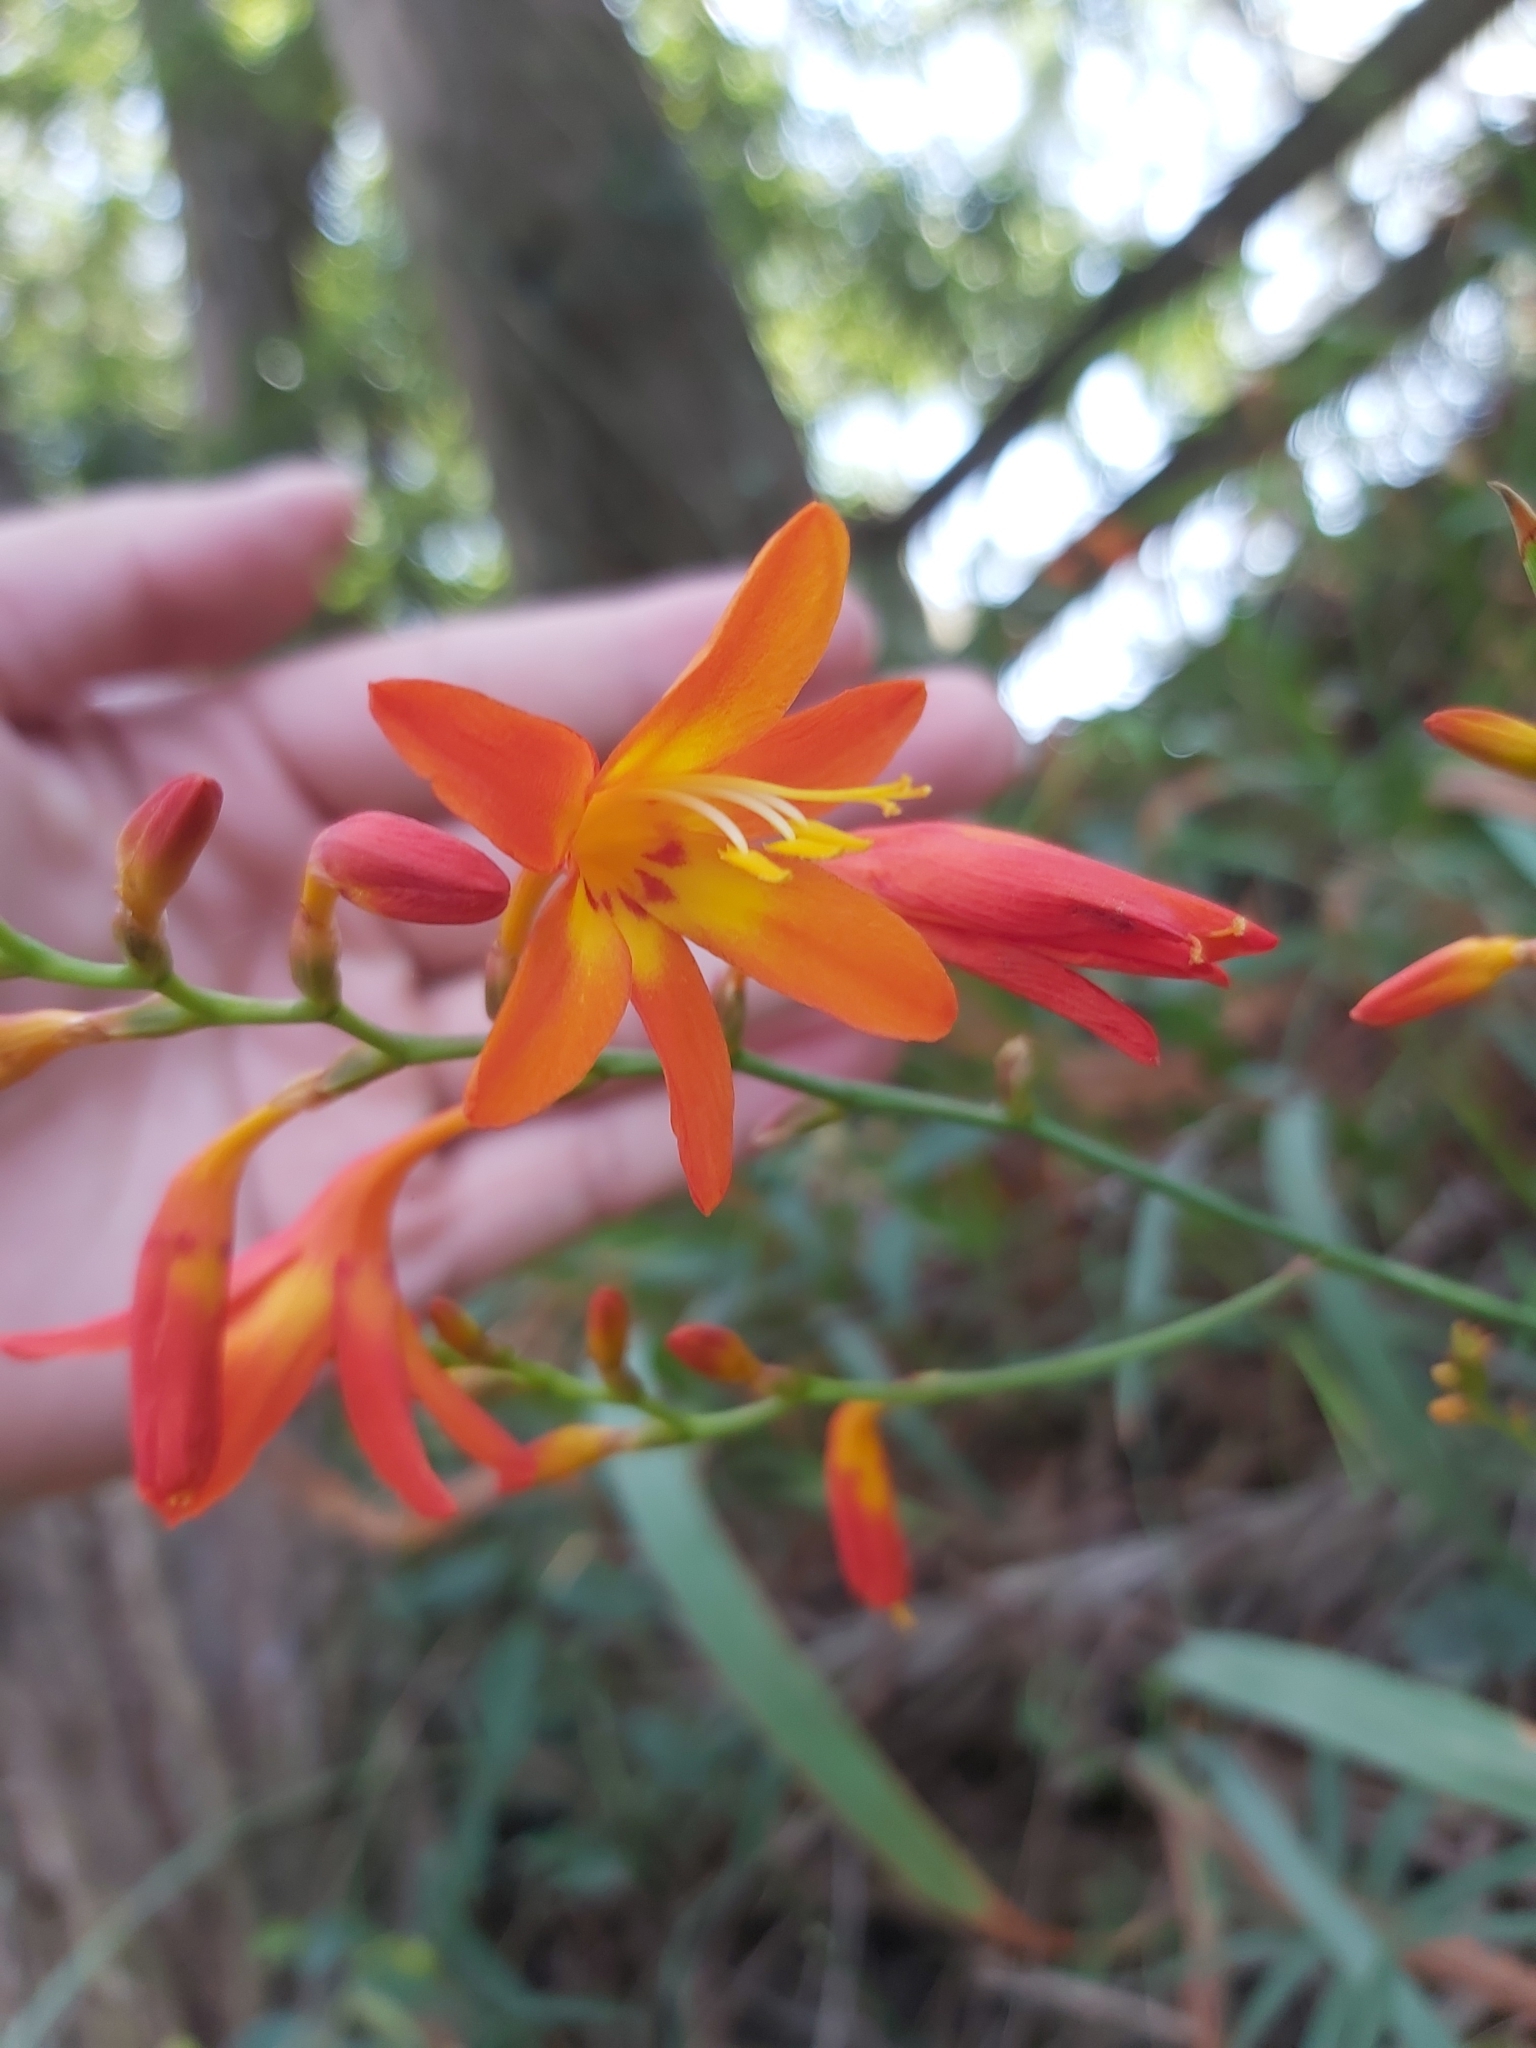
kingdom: Plantae
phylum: Tracheophyta
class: Liliopsida
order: Asparagales
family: Iridaceae
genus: Crocosmia
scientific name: Crocosmia crocosmiiflora
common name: Montbretia
